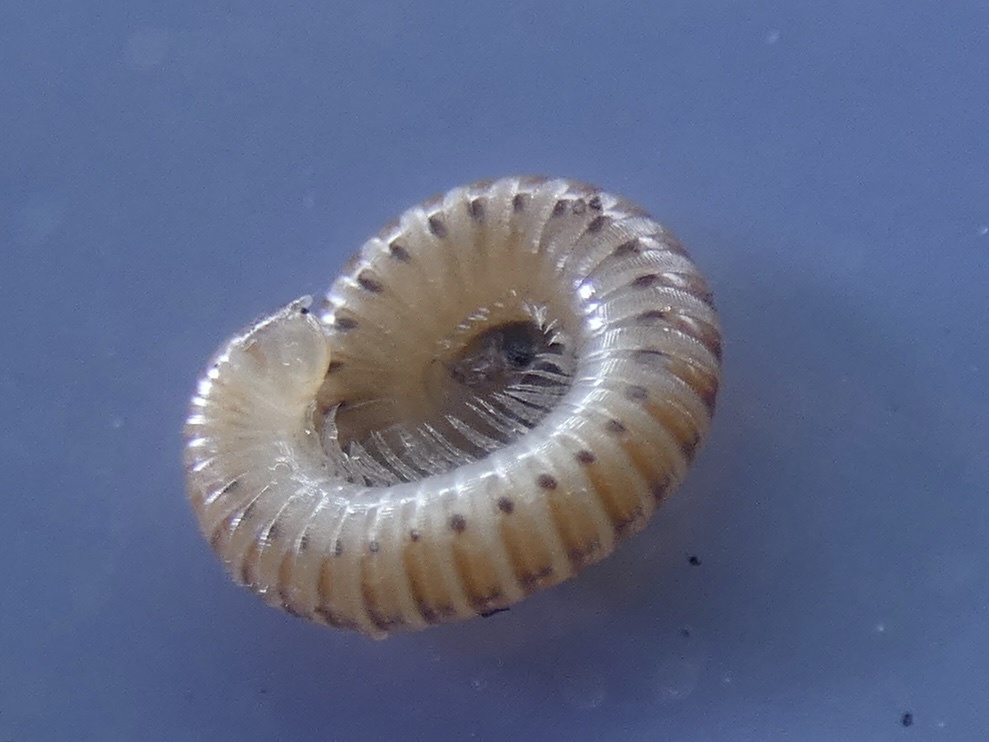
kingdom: Animalia
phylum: Arthropoda
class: Diplopoda
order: Julida
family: Julidae
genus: Cylindroiulus
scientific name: Cylindroiulus punctatus
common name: Blunt-tailed millipede
